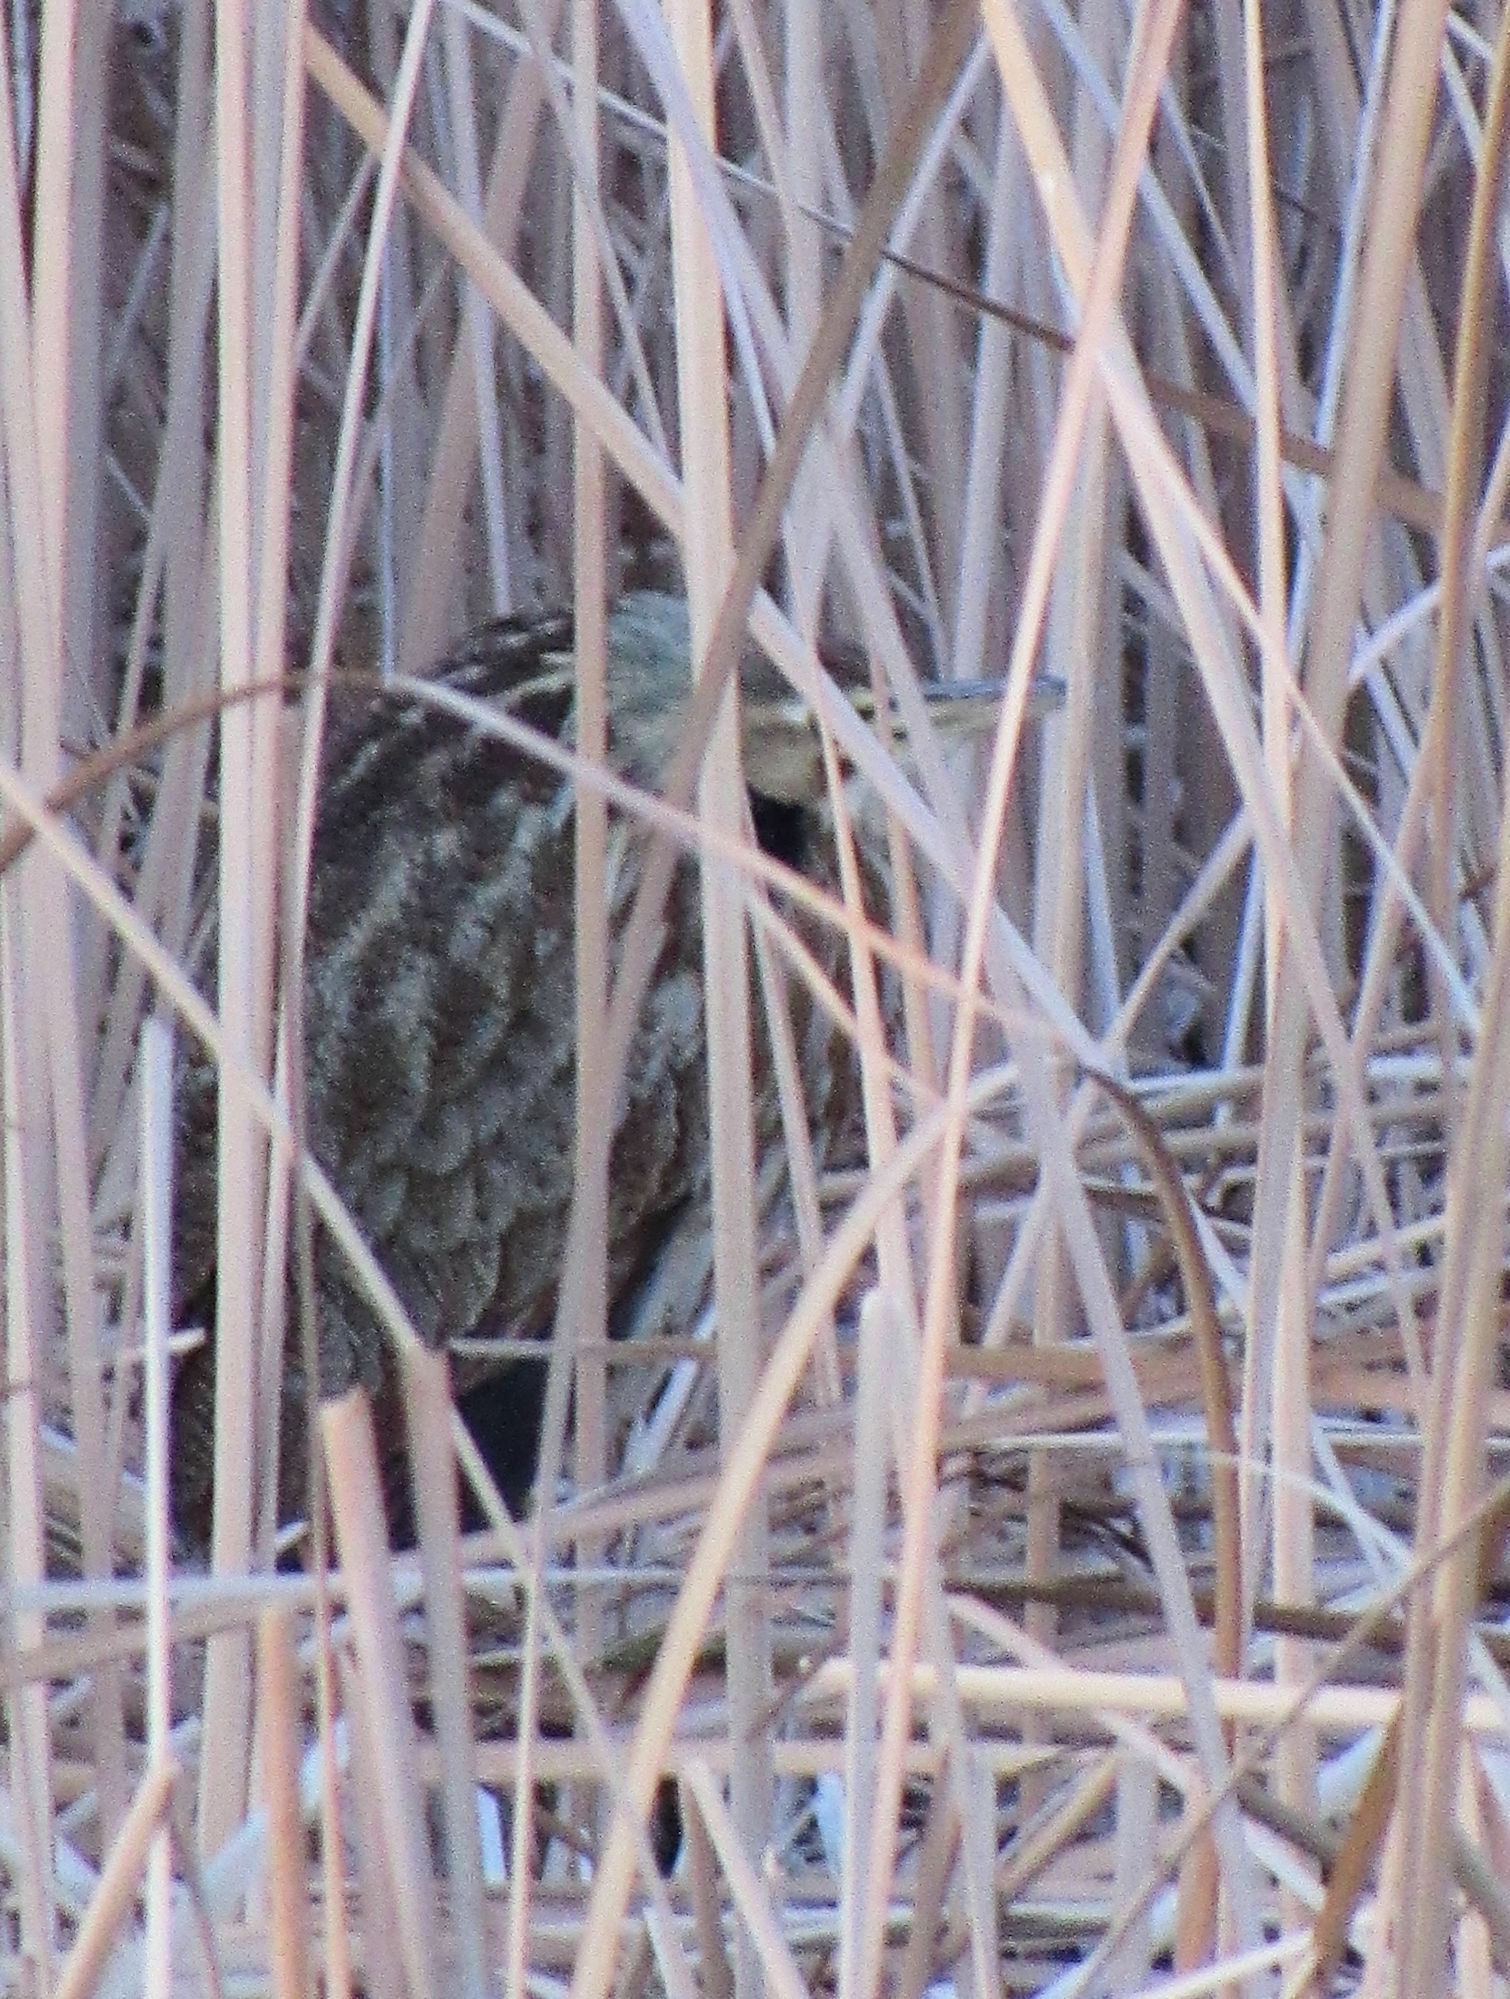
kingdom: Animalia
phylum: Chordata
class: Aves
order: Pelecaniformes
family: Ardeidae
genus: Botaurus
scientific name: Botaurus lentiginosus
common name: American bittern
